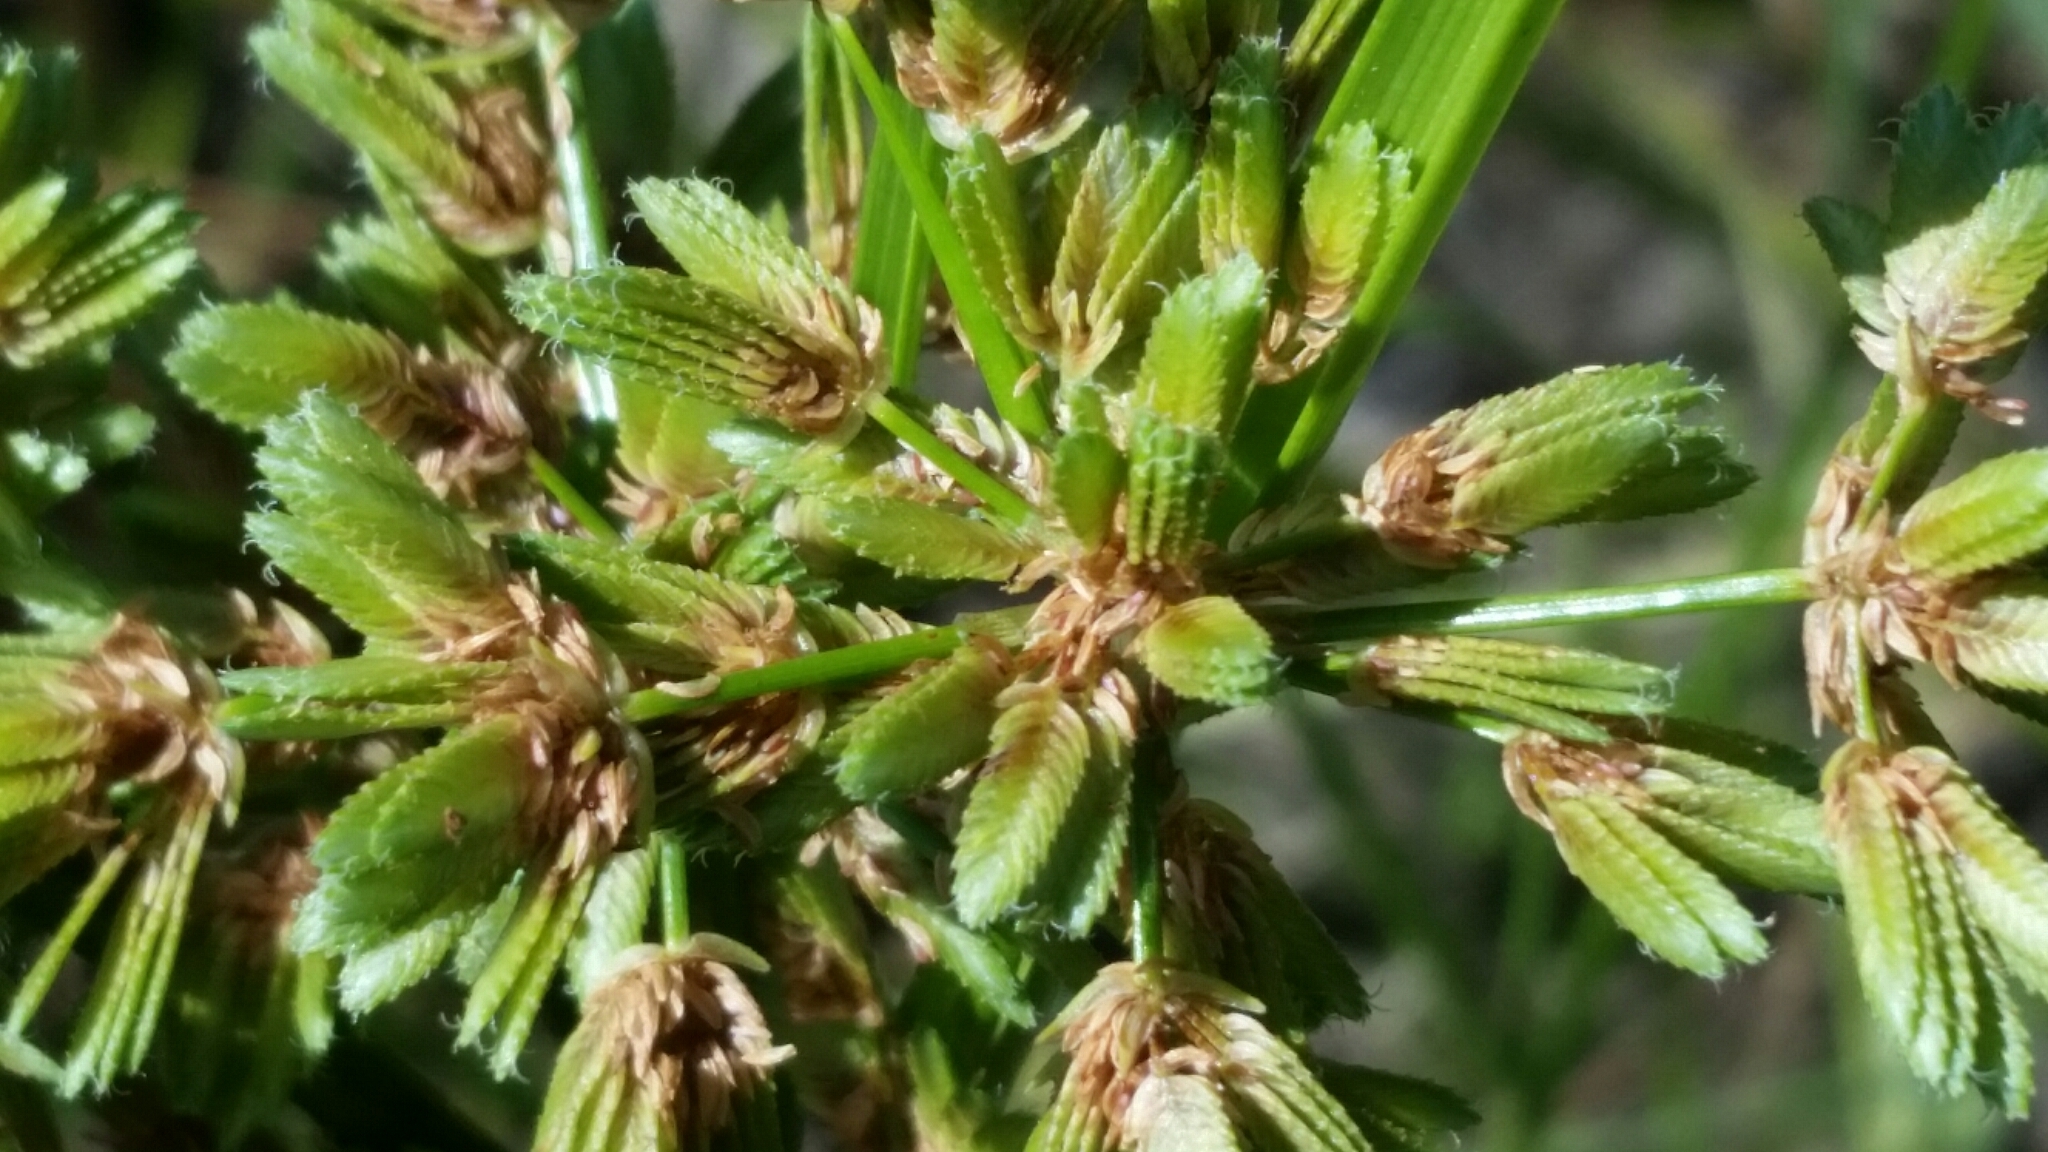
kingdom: Plantae
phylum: Tracheophyta
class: Liliopsida
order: Poales
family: Cyperaceae
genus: Cyperus
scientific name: Cyperus surinamensis
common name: Tropical flat sedge
